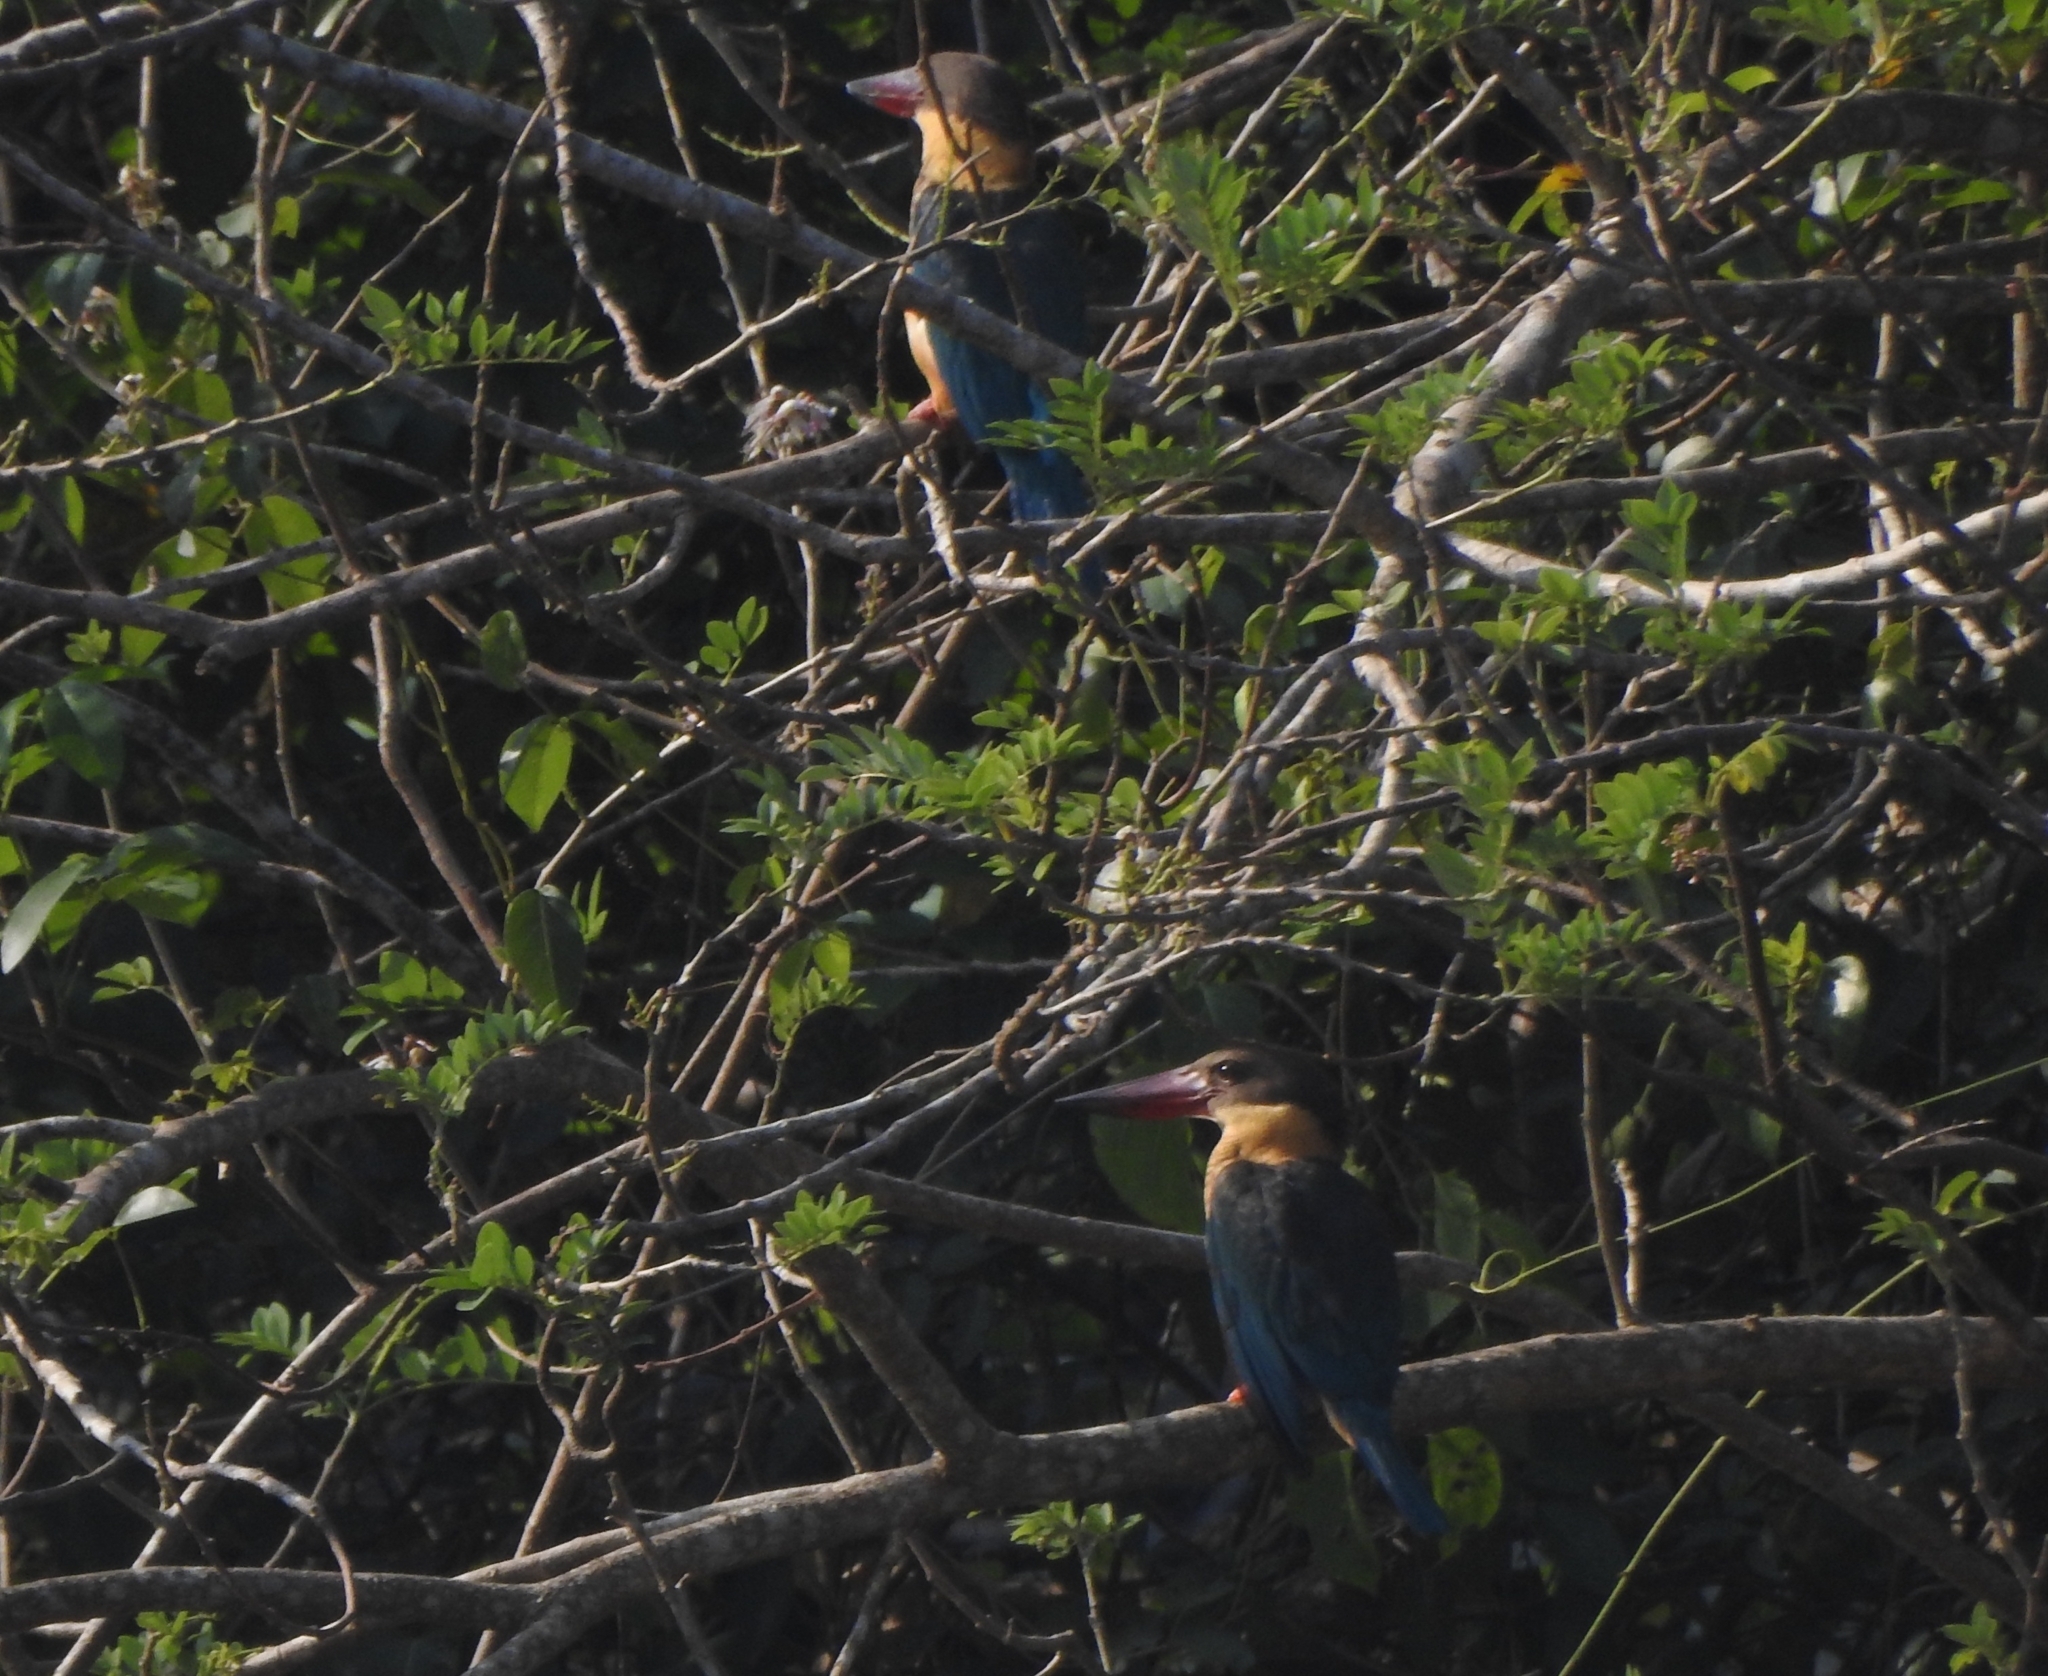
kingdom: Animalia
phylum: Chordata
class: Aves
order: Coraciiformes
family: Alcedinidae
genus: Pelargopsis
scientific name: Pelargopsis capensis
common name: Stork-billed kingfisher
